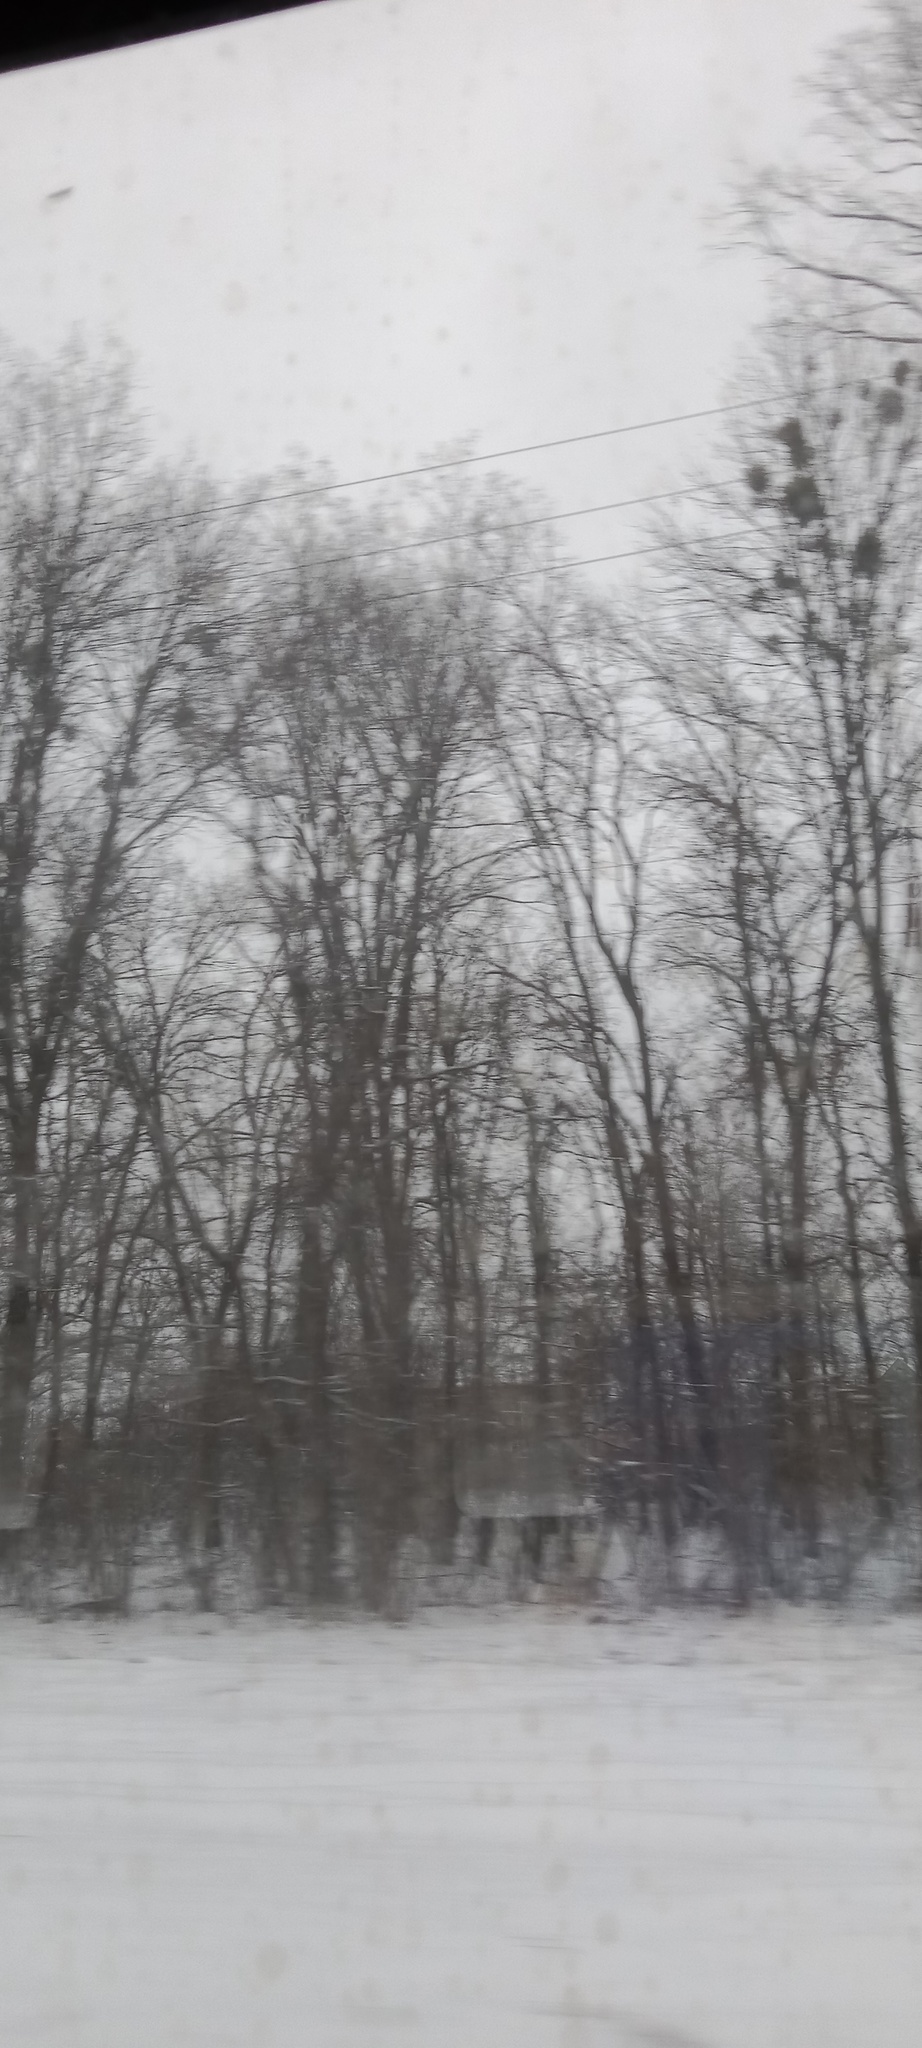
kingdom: Plantae
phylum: Tracheophyta
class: Magnoliopsida
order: Santalales
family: Viscaceae
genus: Viscum
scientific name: Viscum album
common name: Mistletoe
